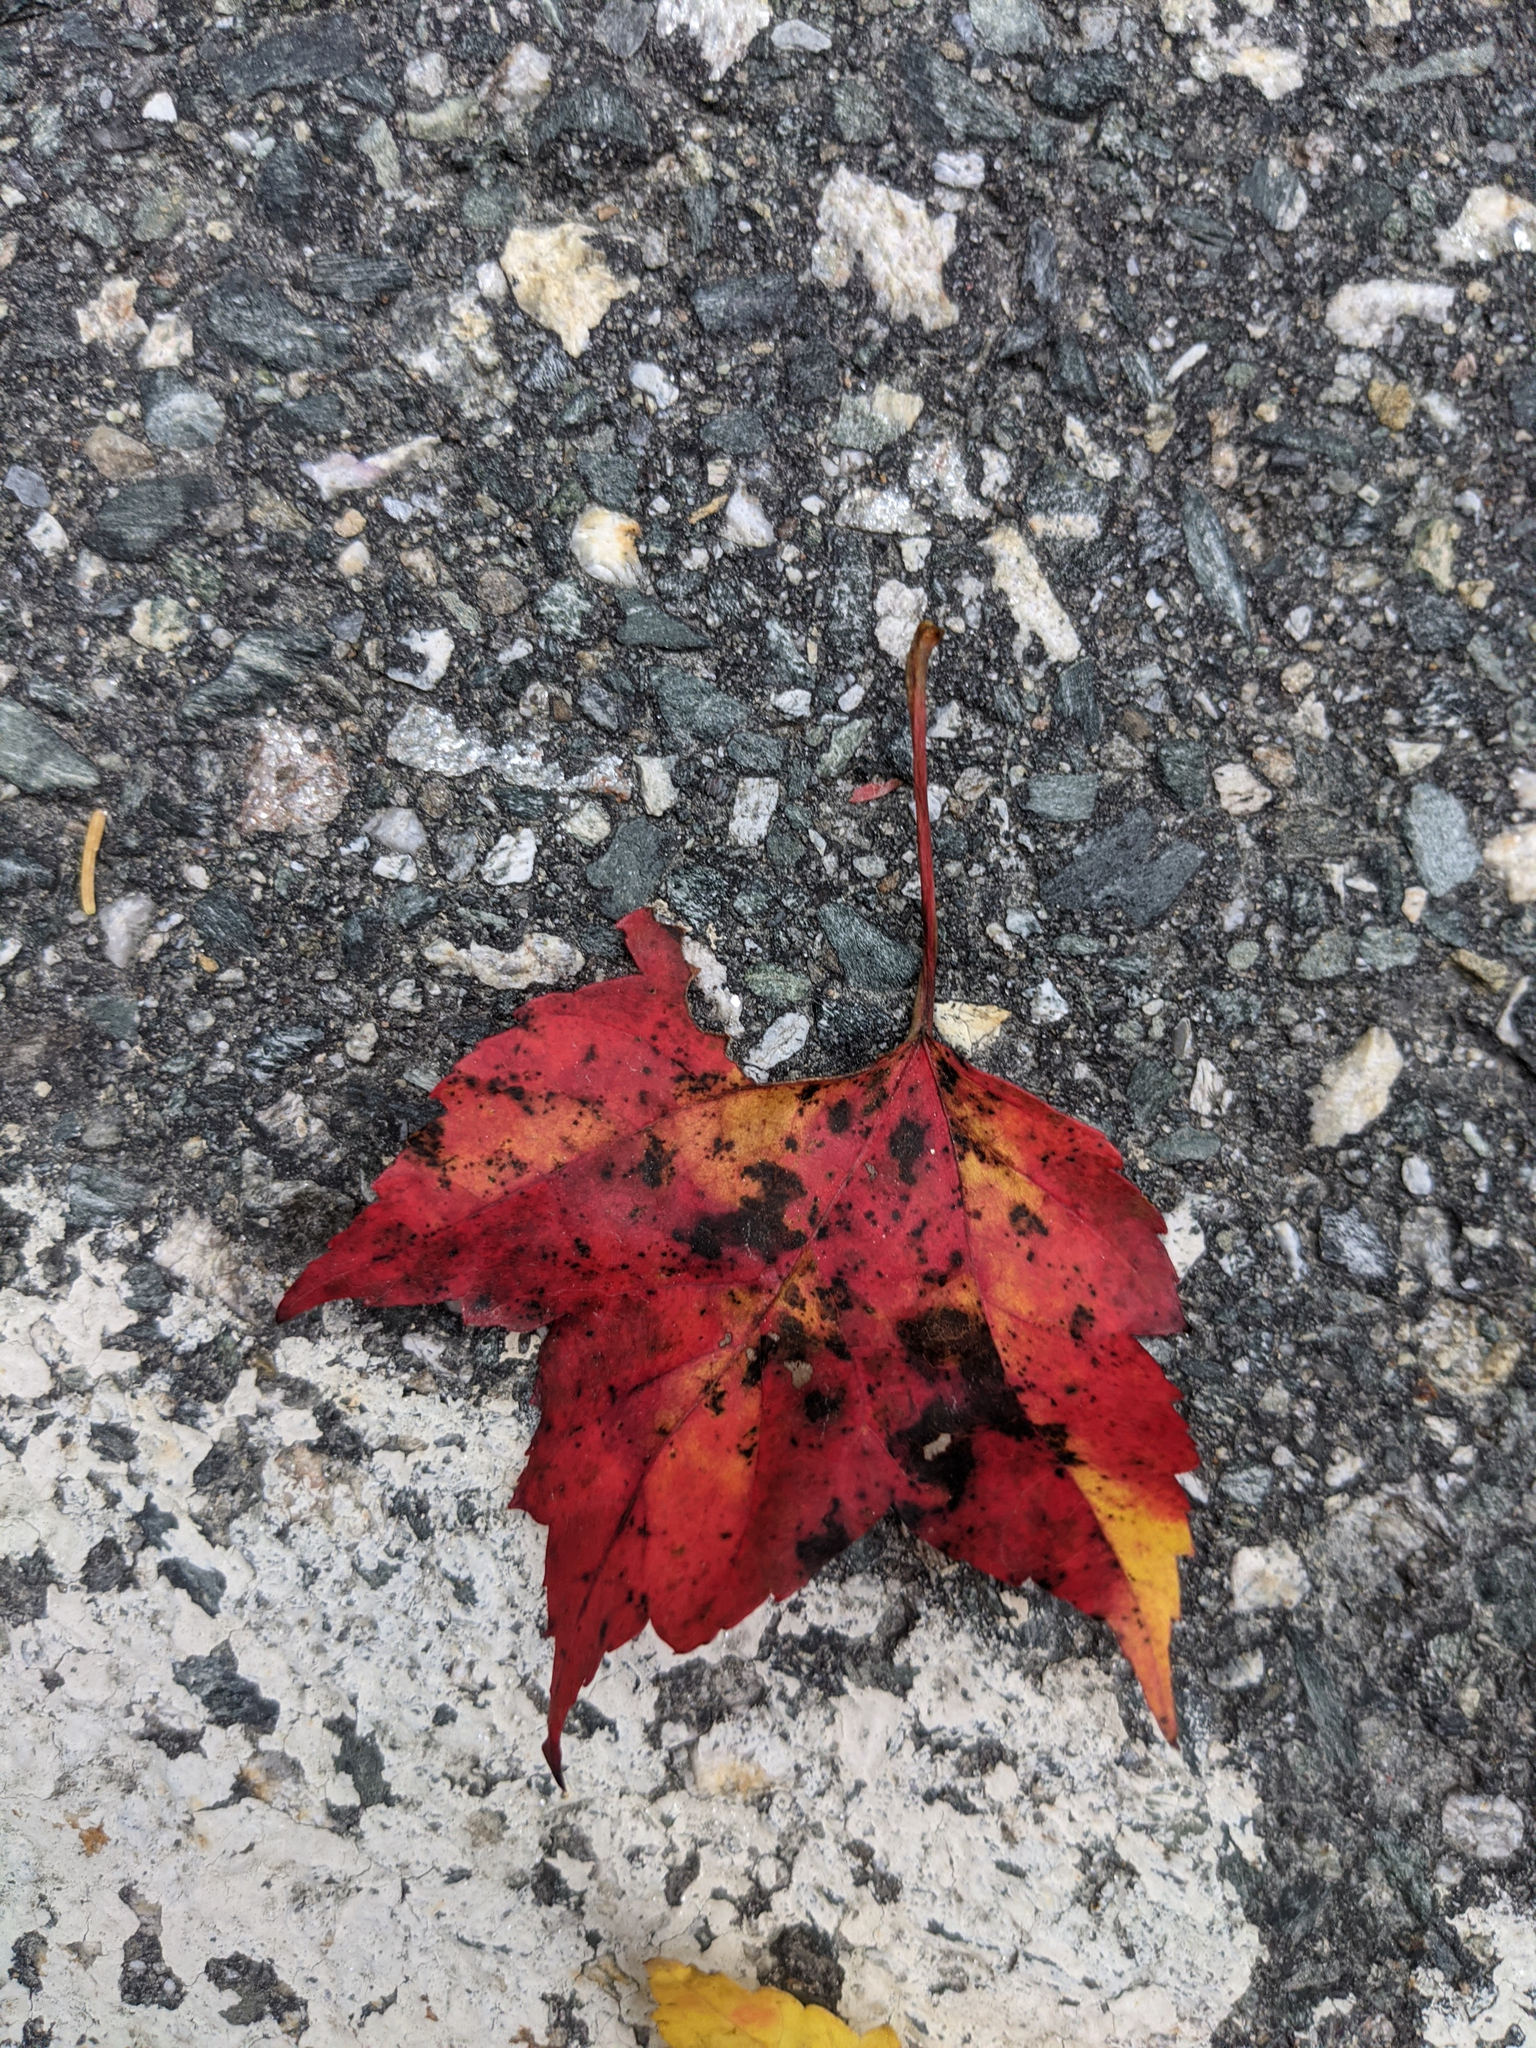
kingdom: Plantae
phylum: Tracheophyta
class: Magnoliopsida
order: Sapindales
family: Sapindaceae
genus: Acer
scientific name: Acer rubrum
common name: Red maple
